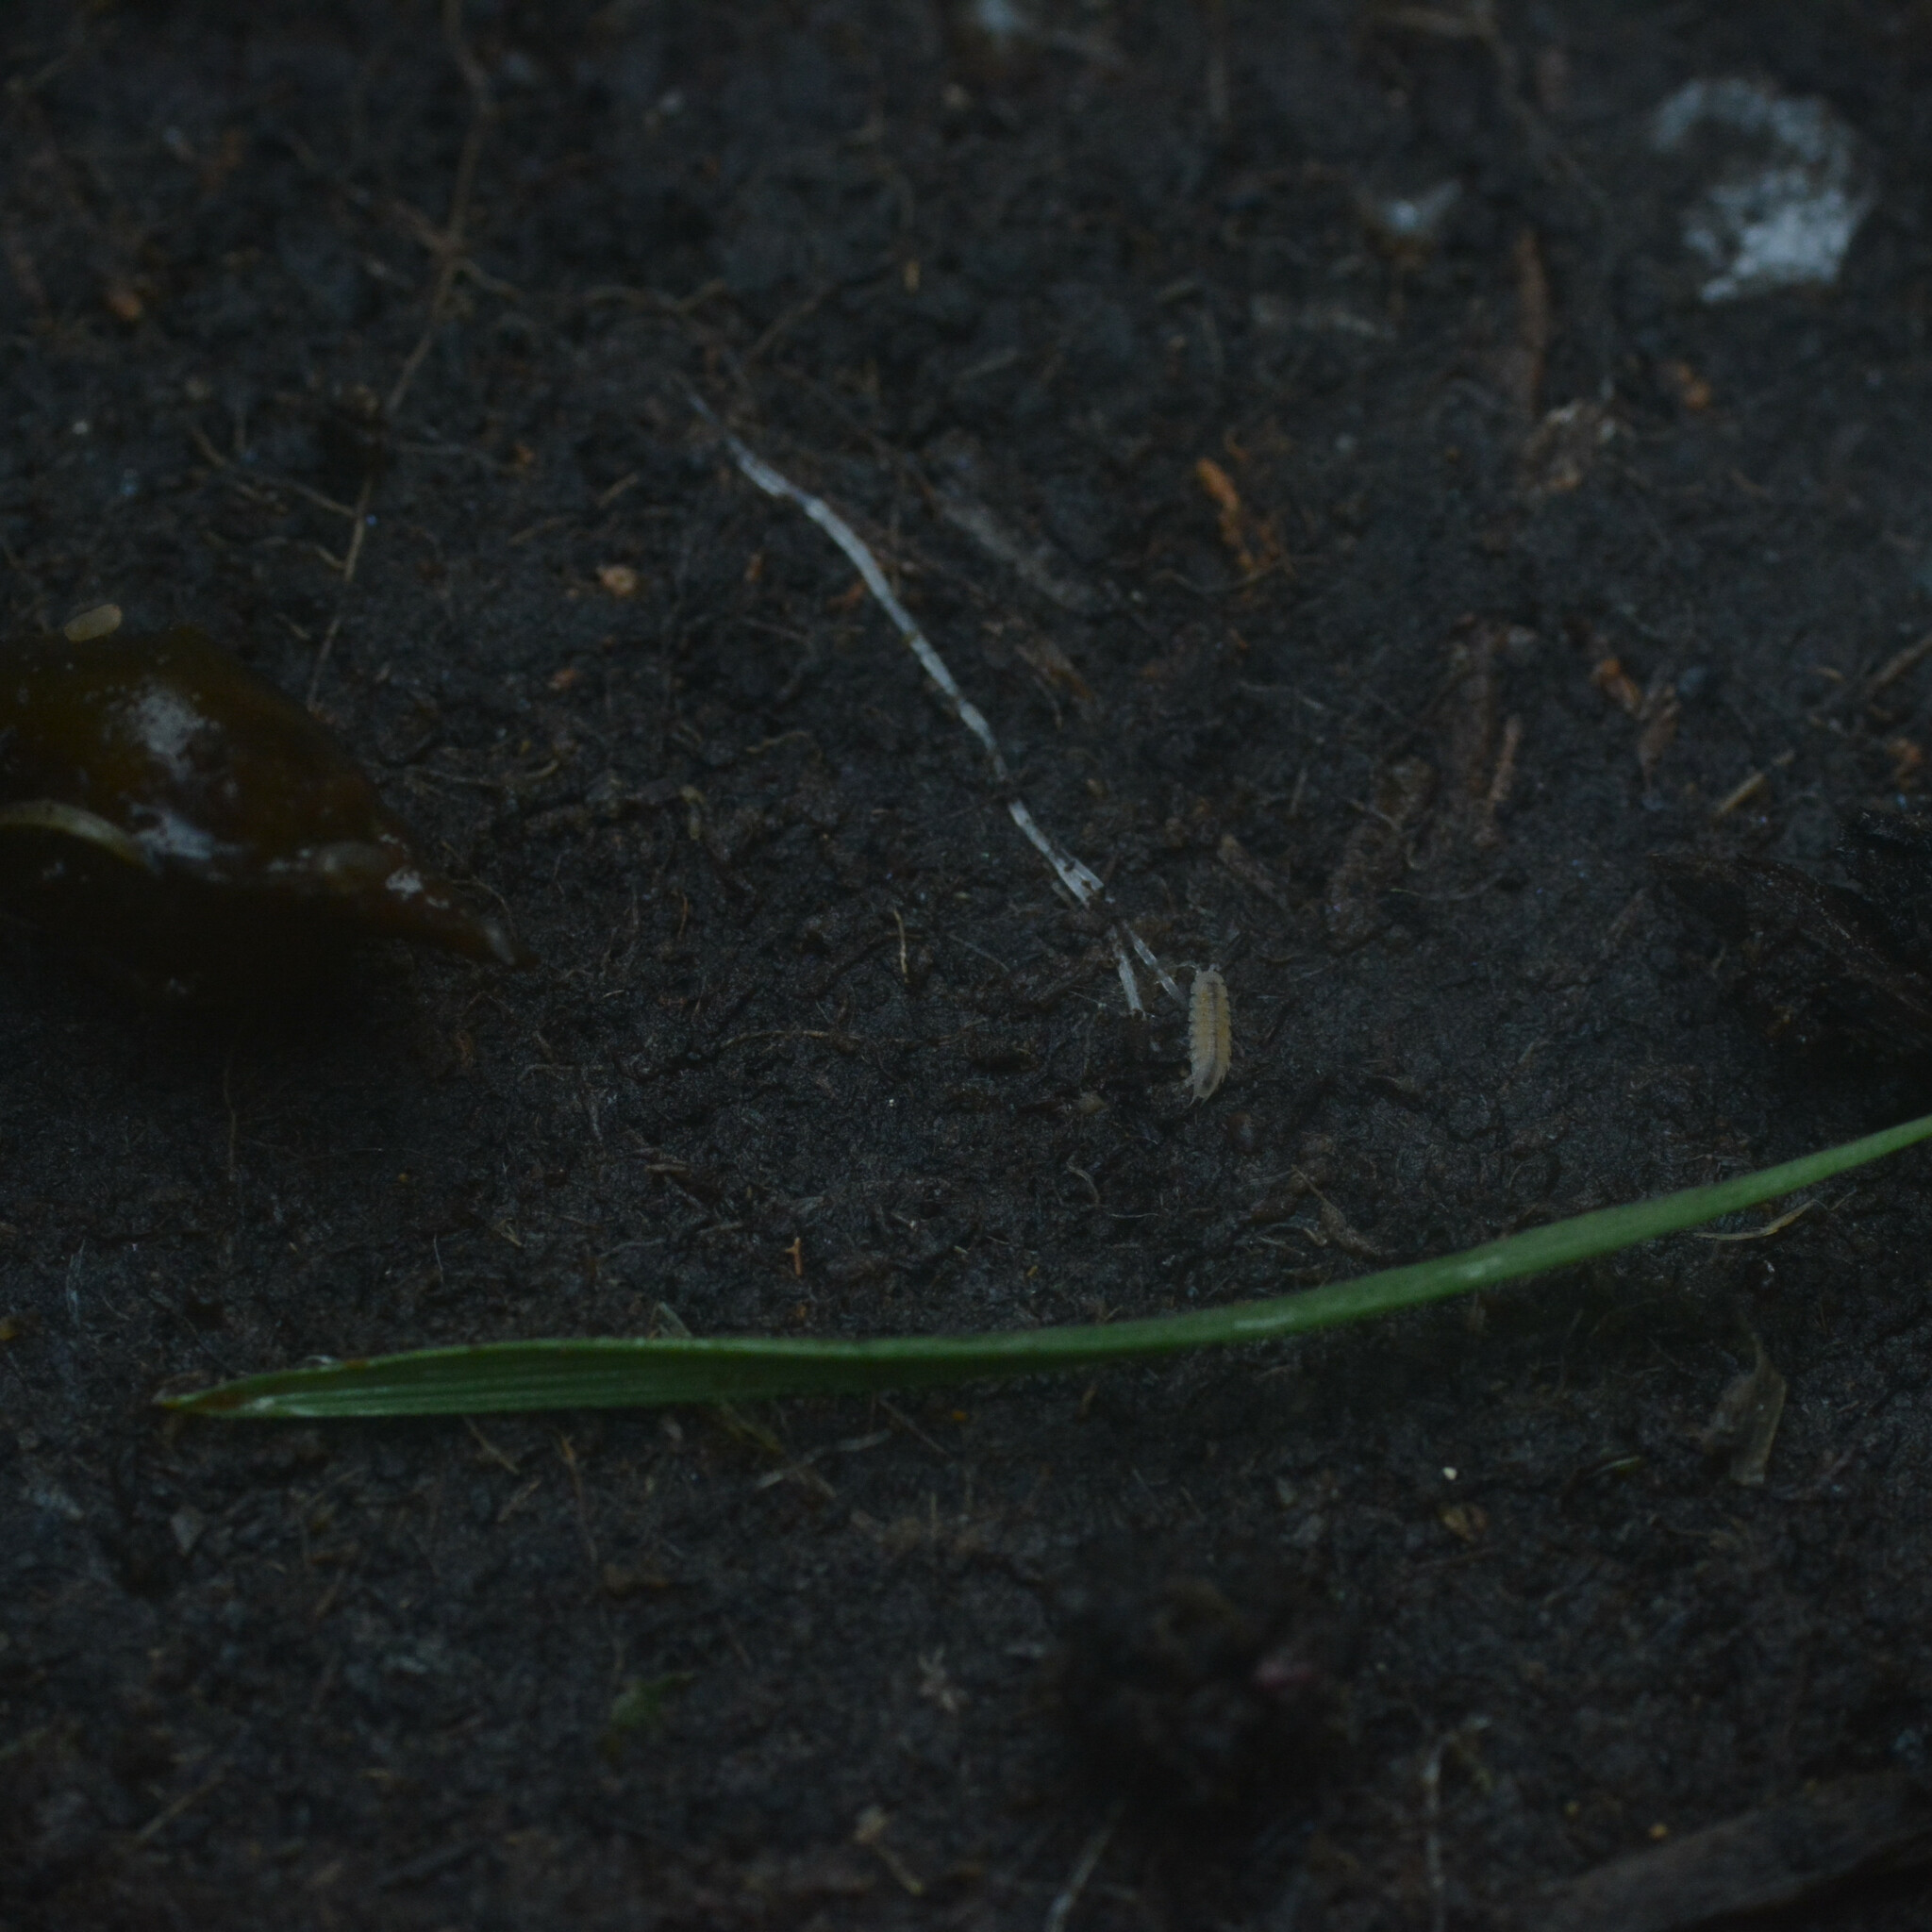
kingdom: Animalia
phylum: Arthropoda
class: Malacostraca
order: Isopoda
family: Trichoniscidae
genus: Miktoniscus
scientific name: Miktoniscus patiencei
